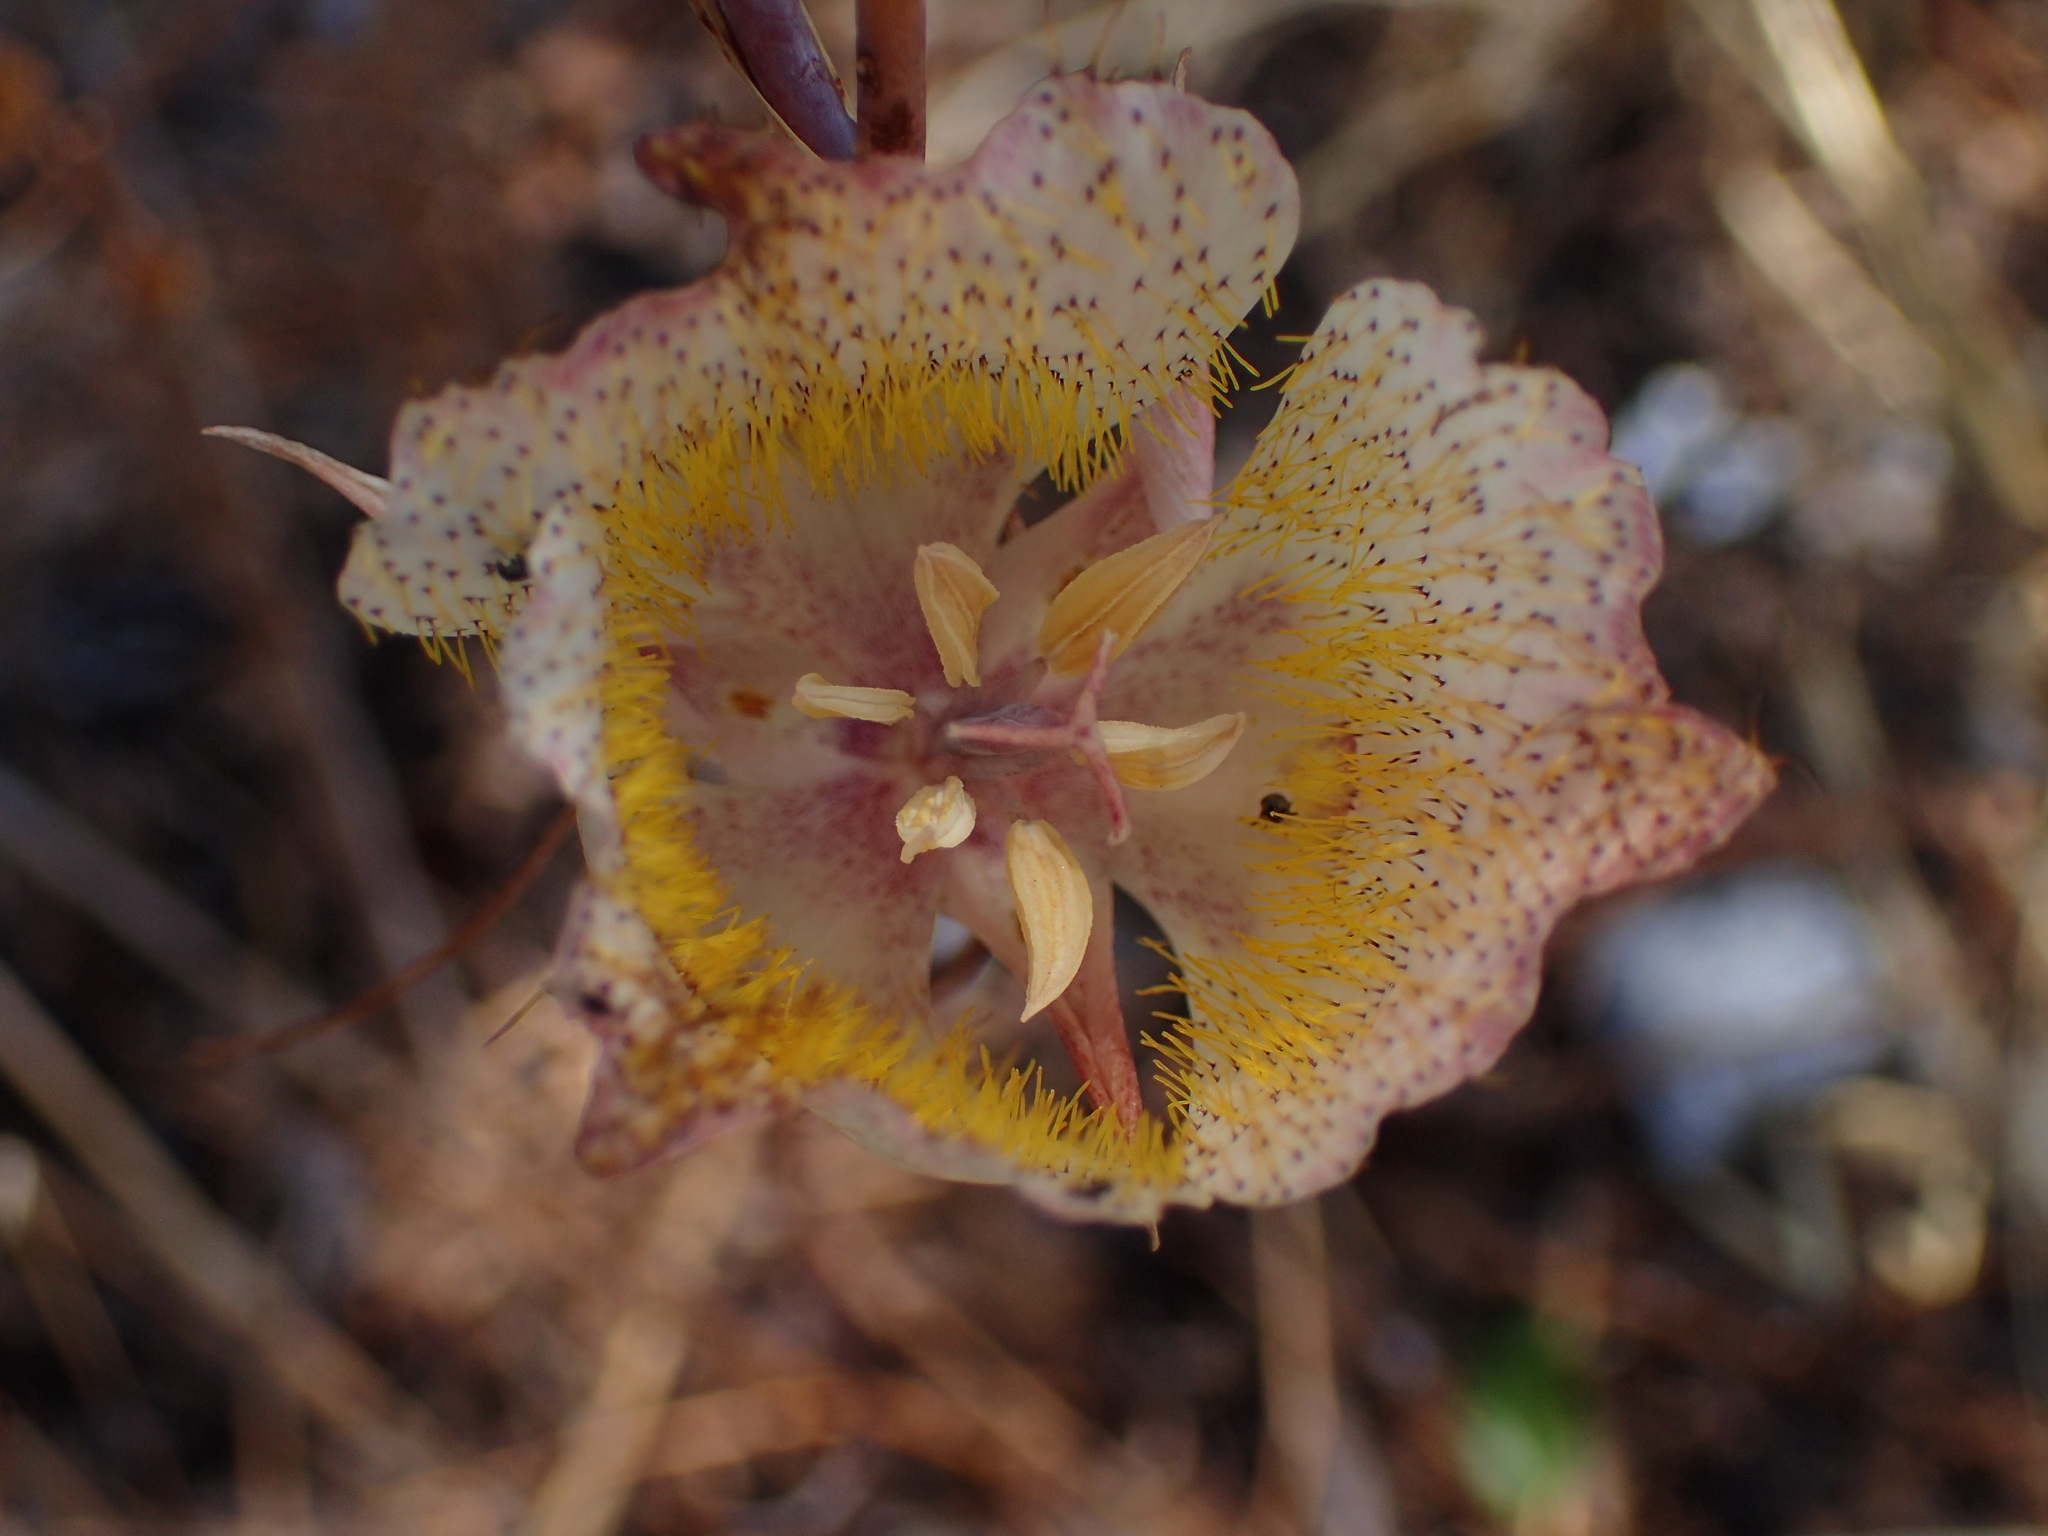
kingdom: Plantae
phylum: Tracheophyta
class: Liliopsida
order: Liliales
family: Liliaceae
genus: Calochortus
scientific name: Calochortus fimbriatus
